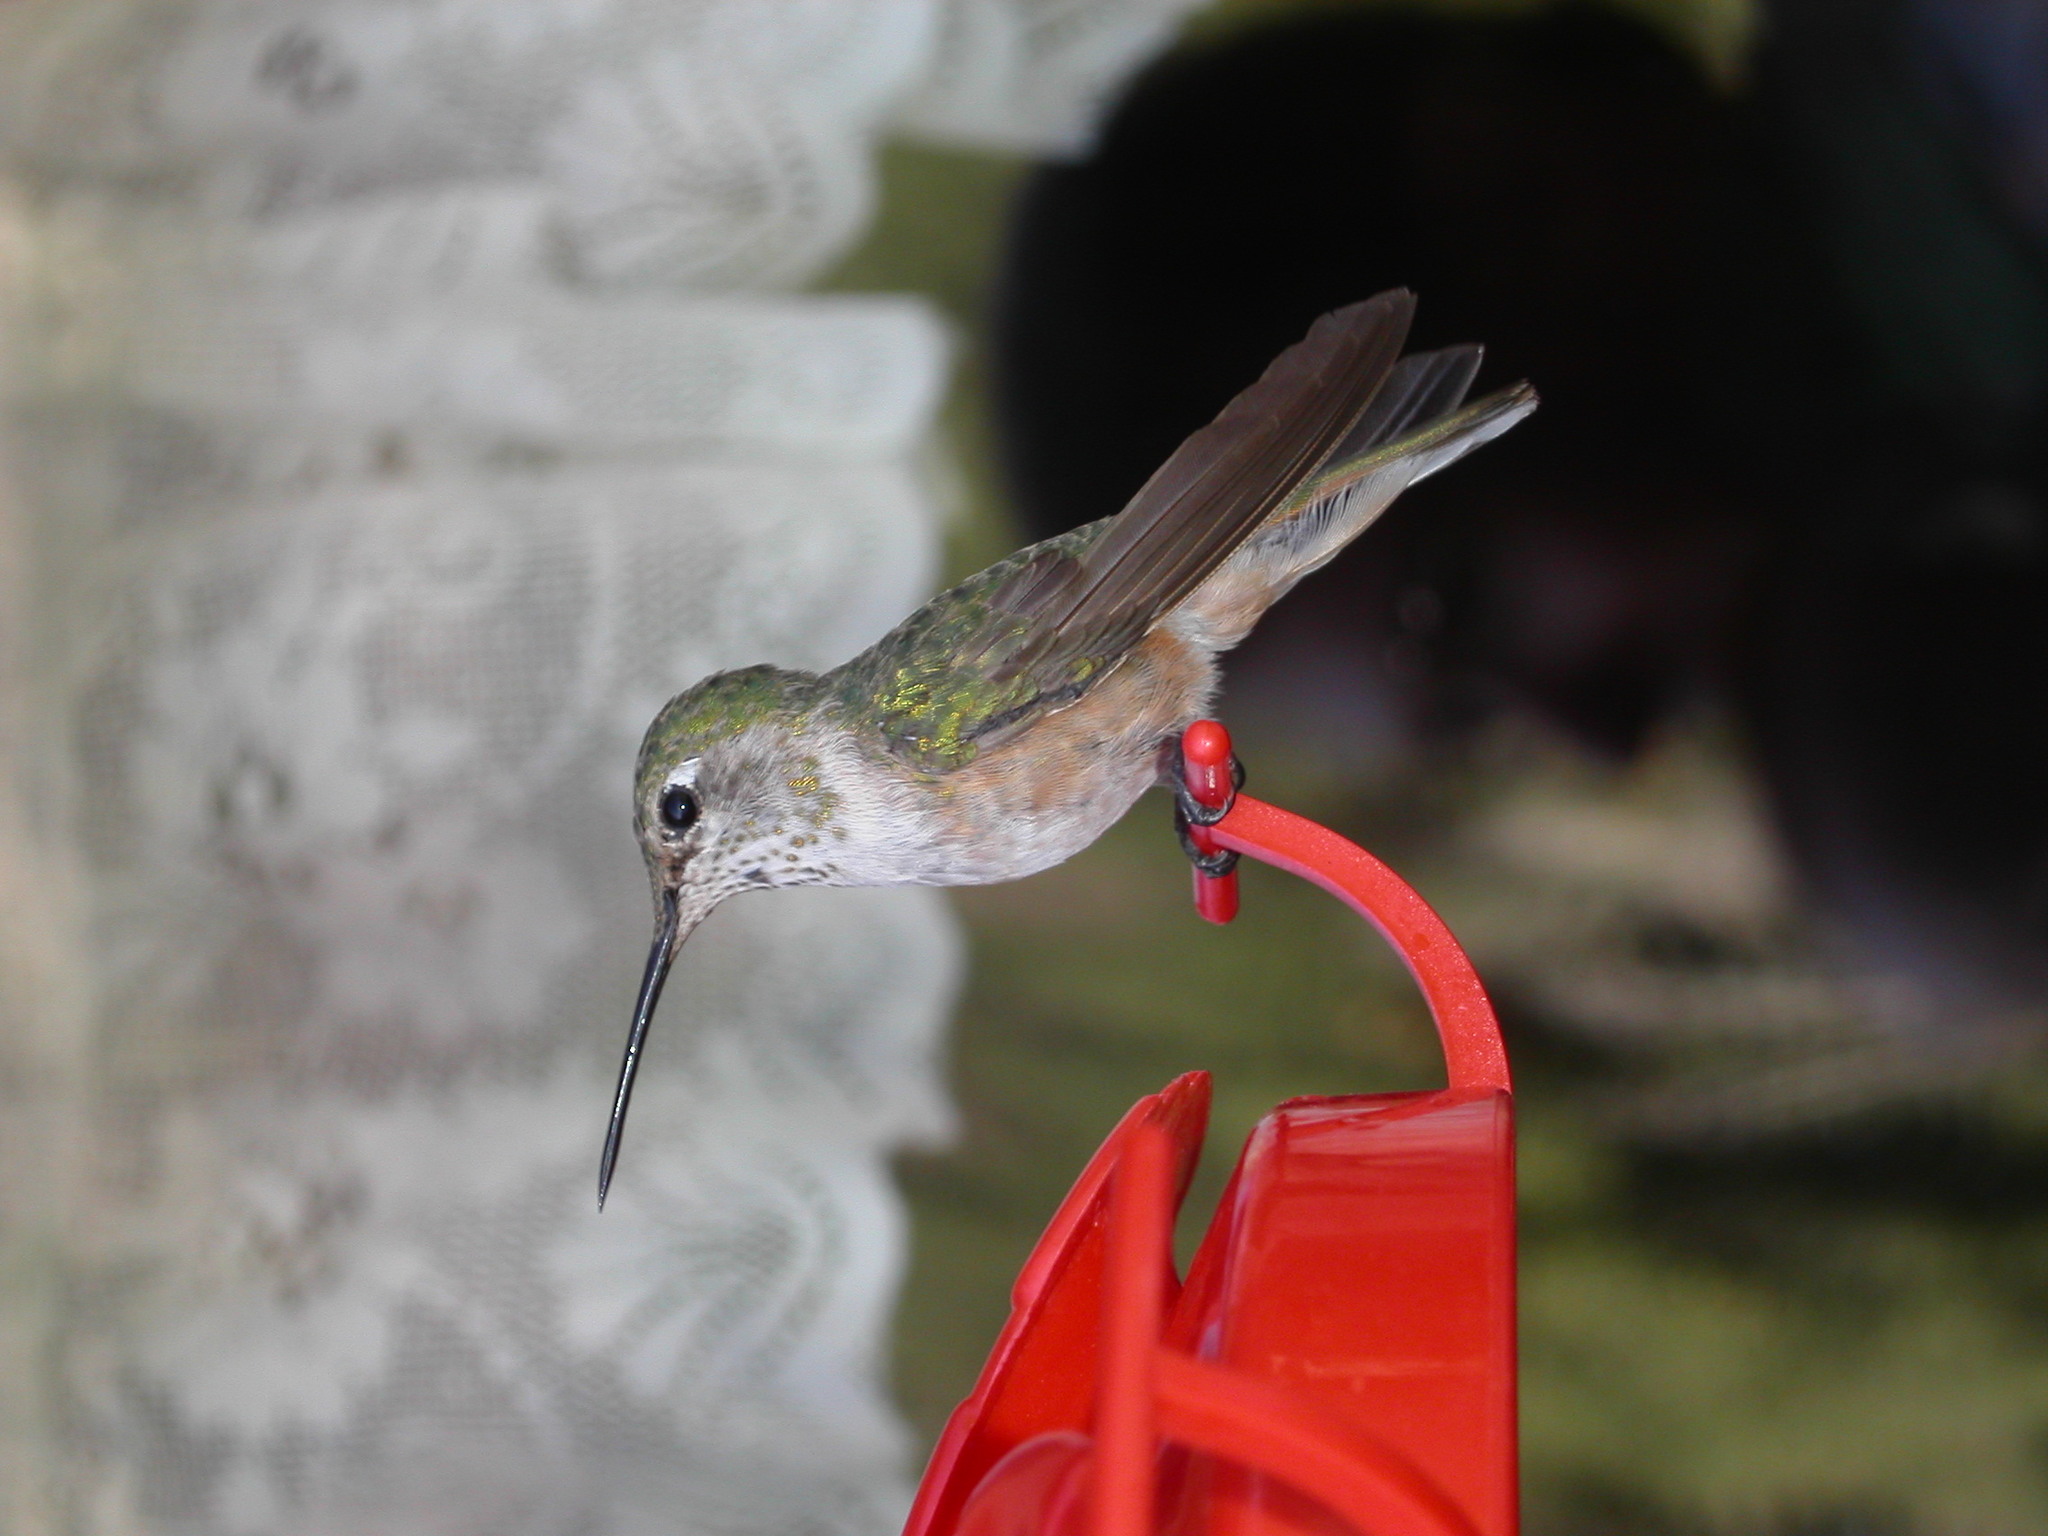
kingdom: Animalia
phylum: Chordata
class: Aves
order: Apodiformes
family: Trochilidae
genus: Selasphorus
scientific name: Selasphorus platycercus
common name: Broad-tailed hummingbird
